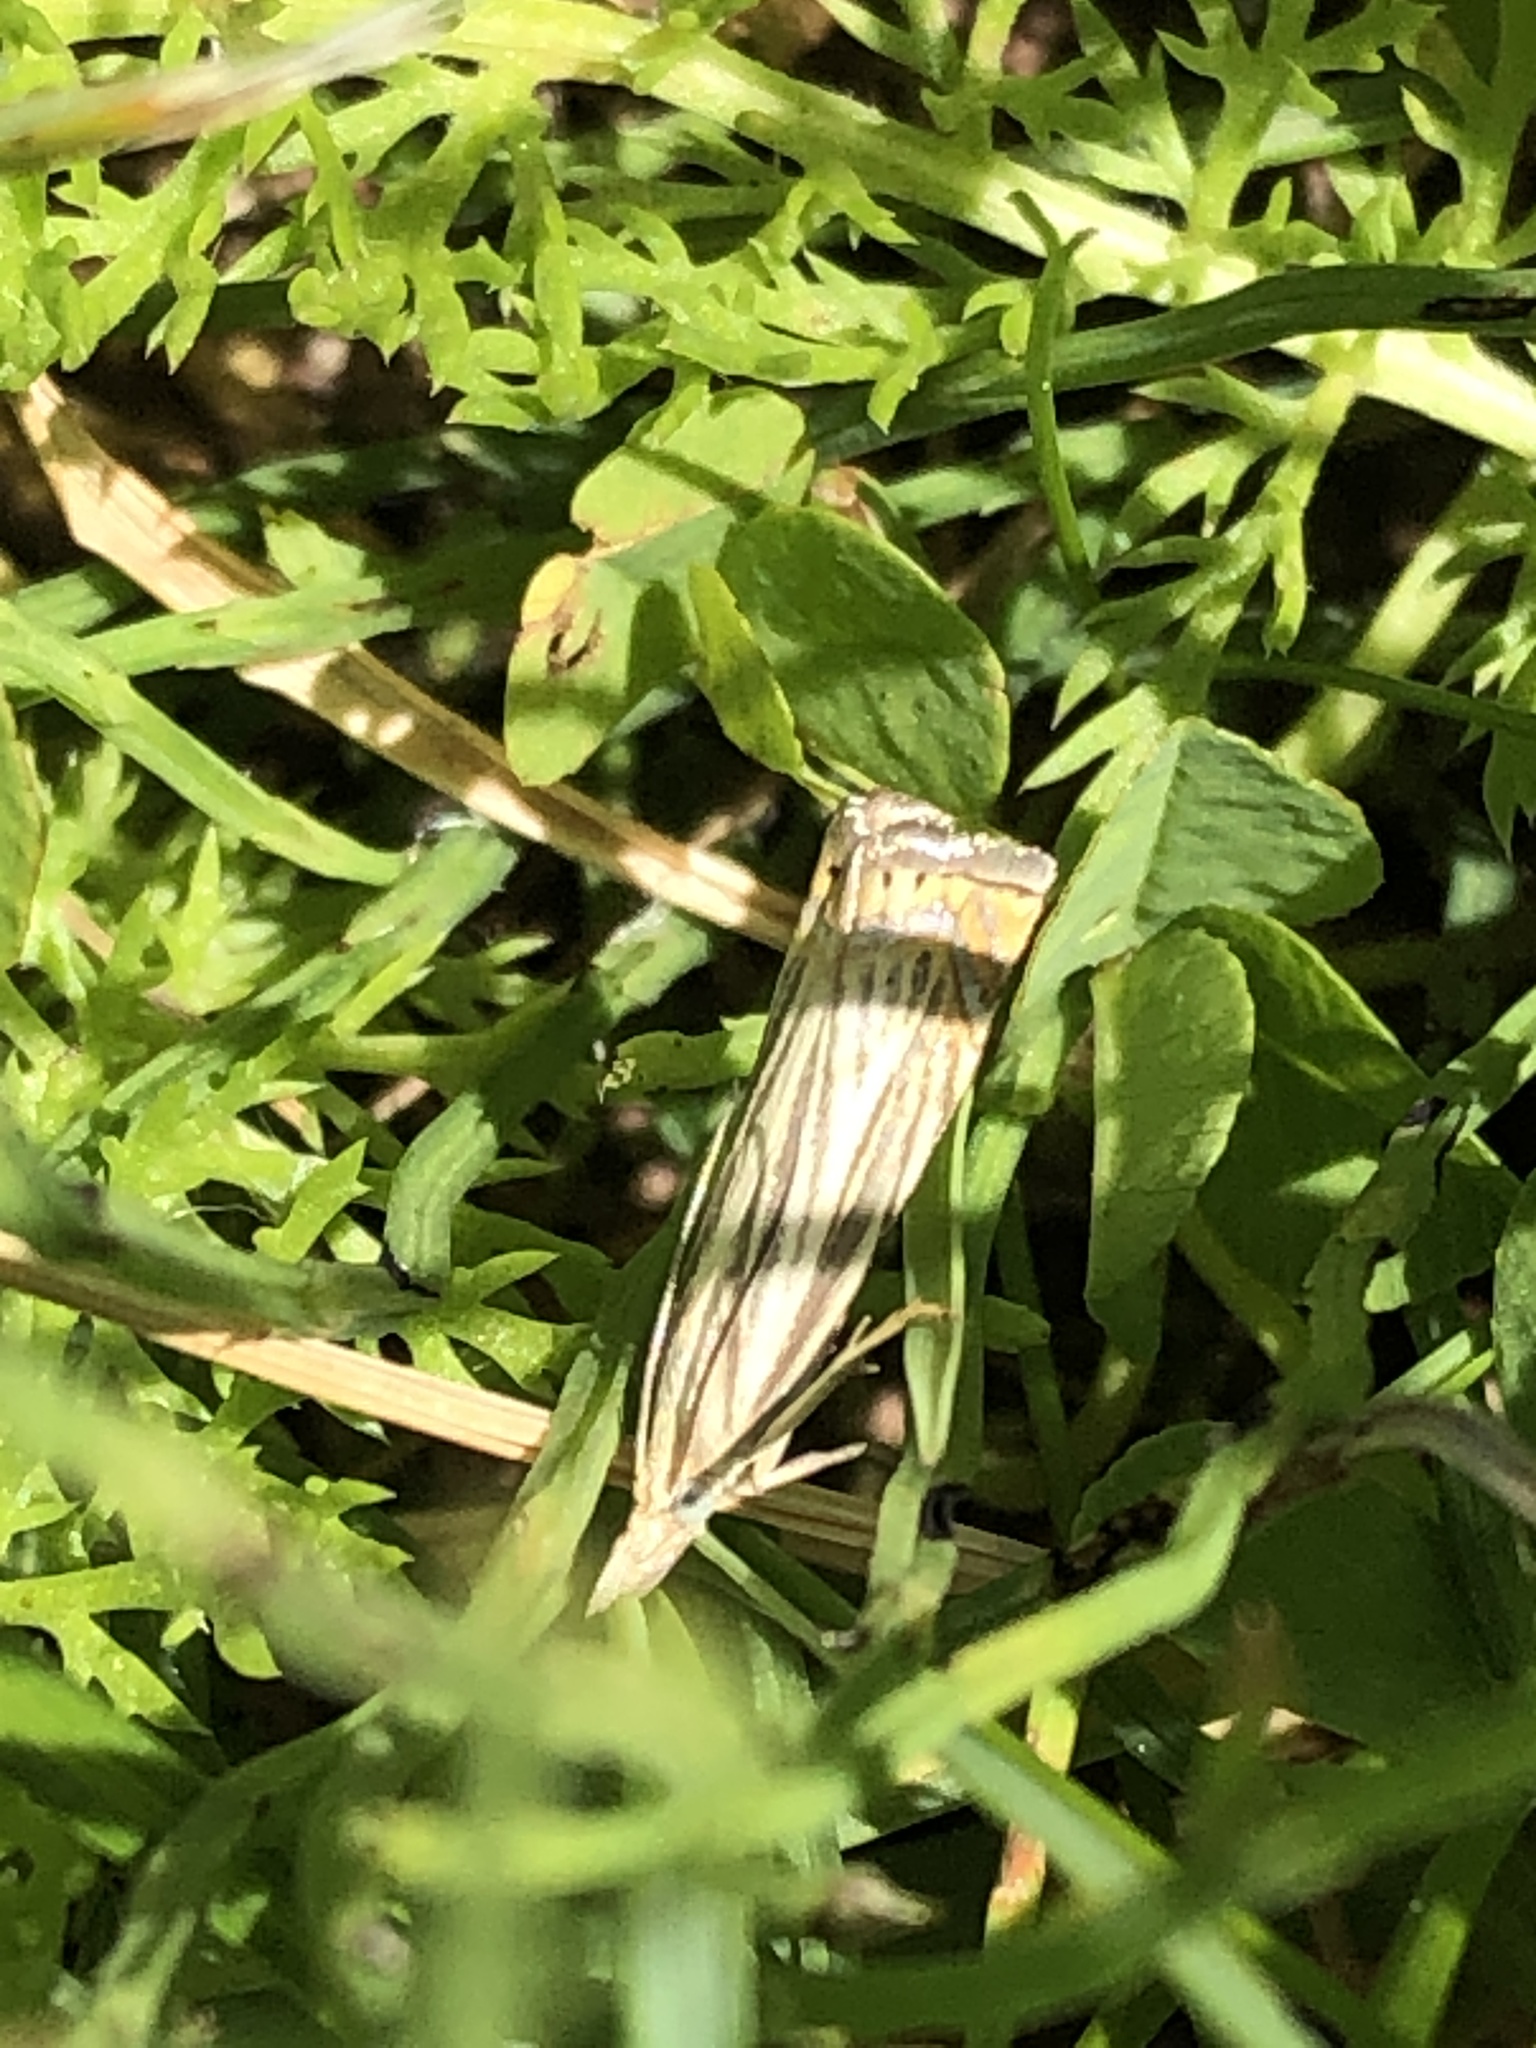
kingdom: Animalia
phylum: Arthropoda
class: Insecta
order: Lepidoptera
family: Crambidae
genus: Chrysoteuchia
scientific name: Chrysoteuchia topiarius
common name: Topiary grass-veneer
